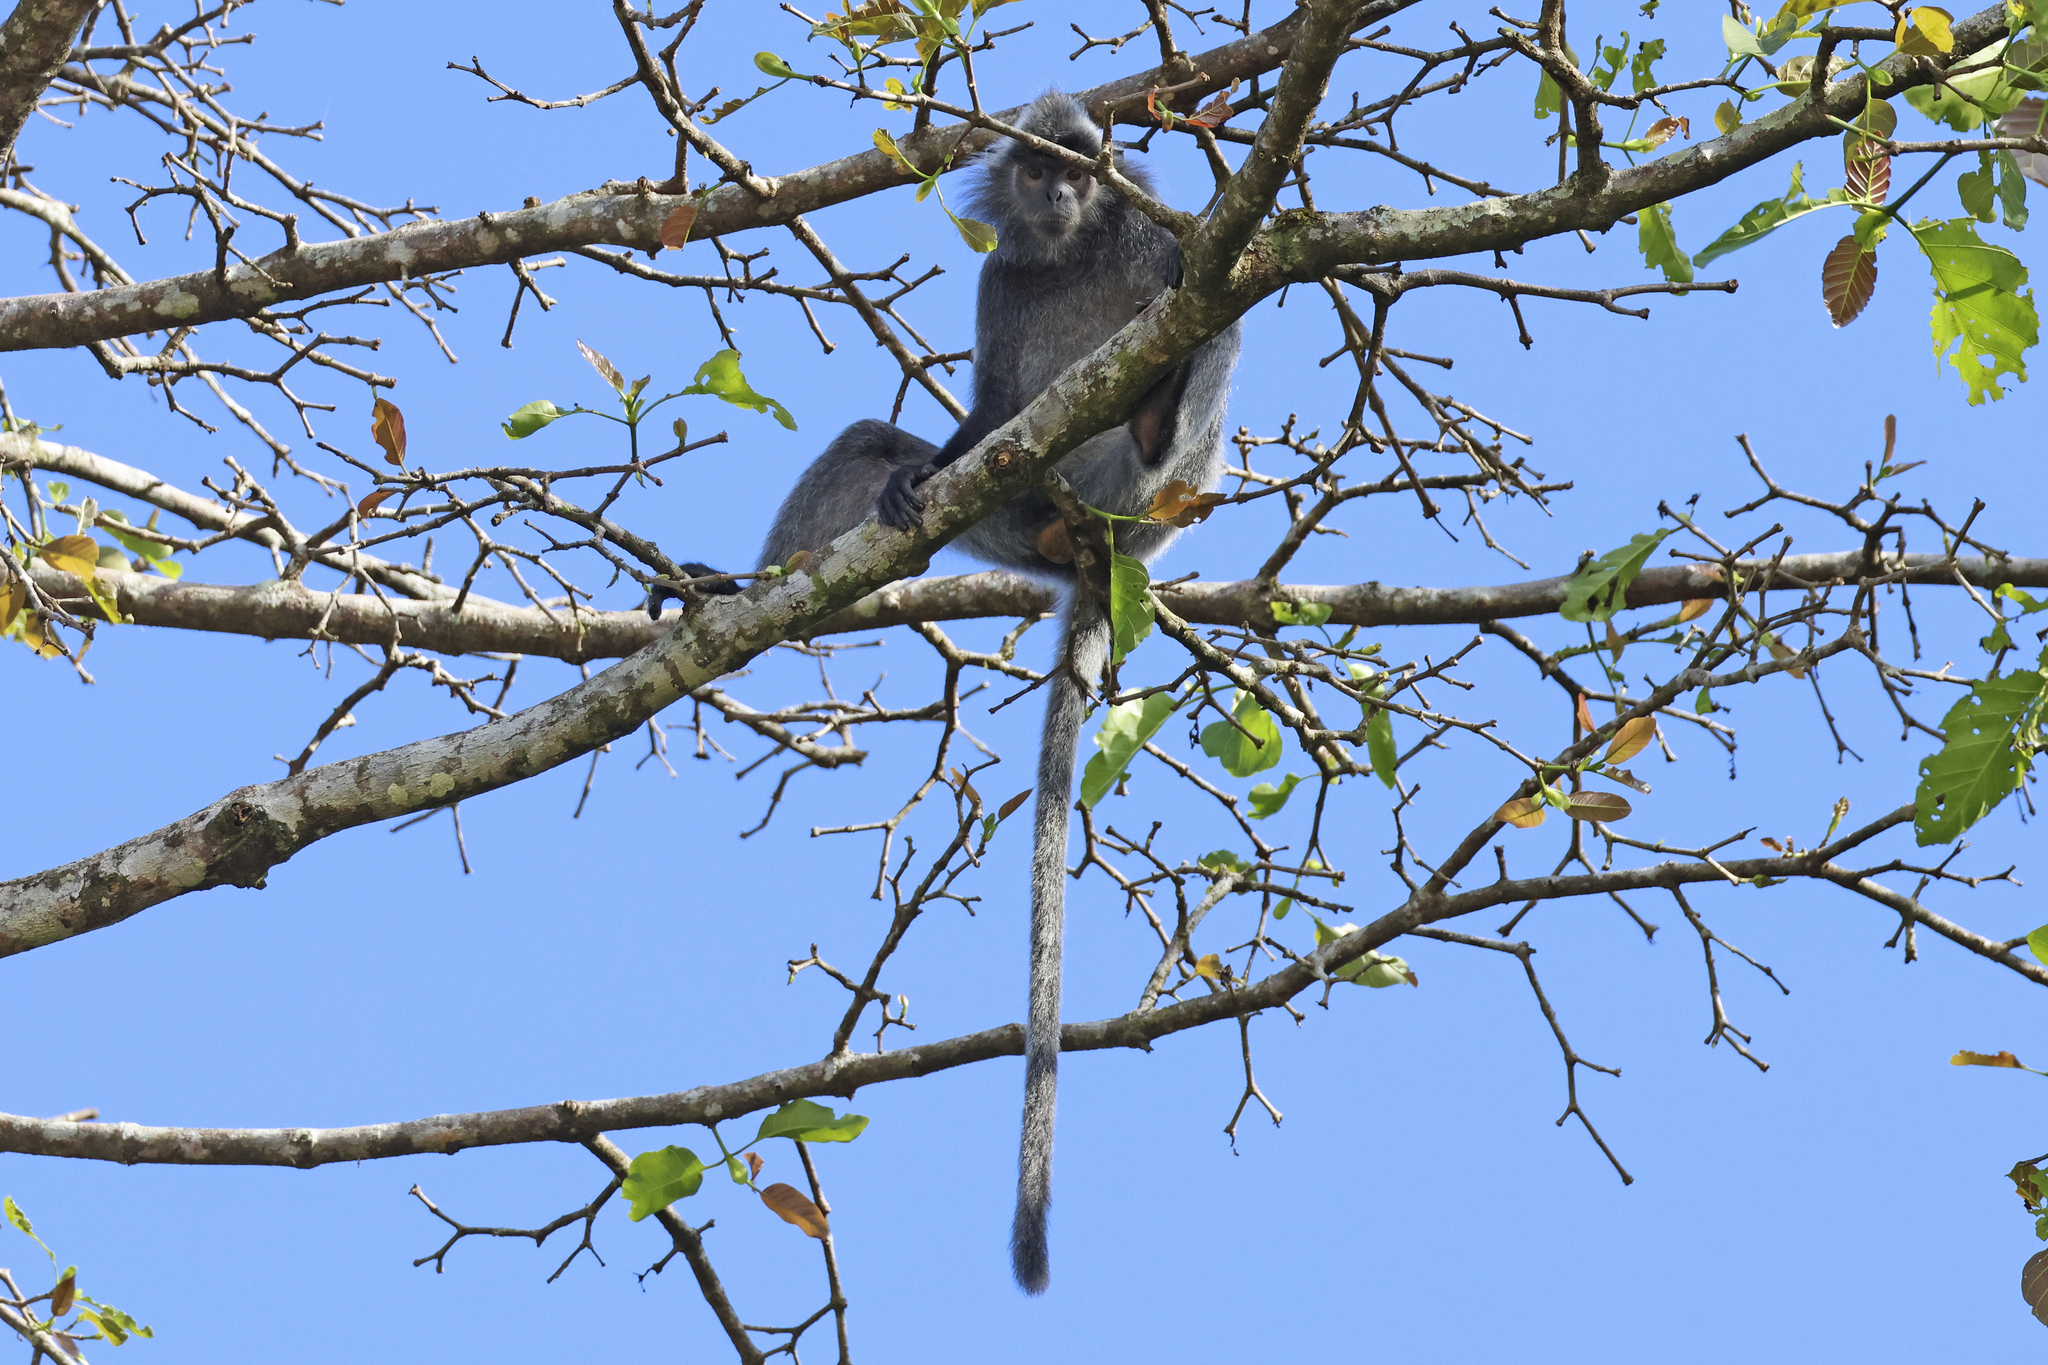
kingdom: Animalia
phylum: Chordata
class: Mammalia
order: Primates
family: Cercopithecidae
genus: Trachypithecus
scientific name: Trachypithecus cristatus
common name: Silvery lutung
